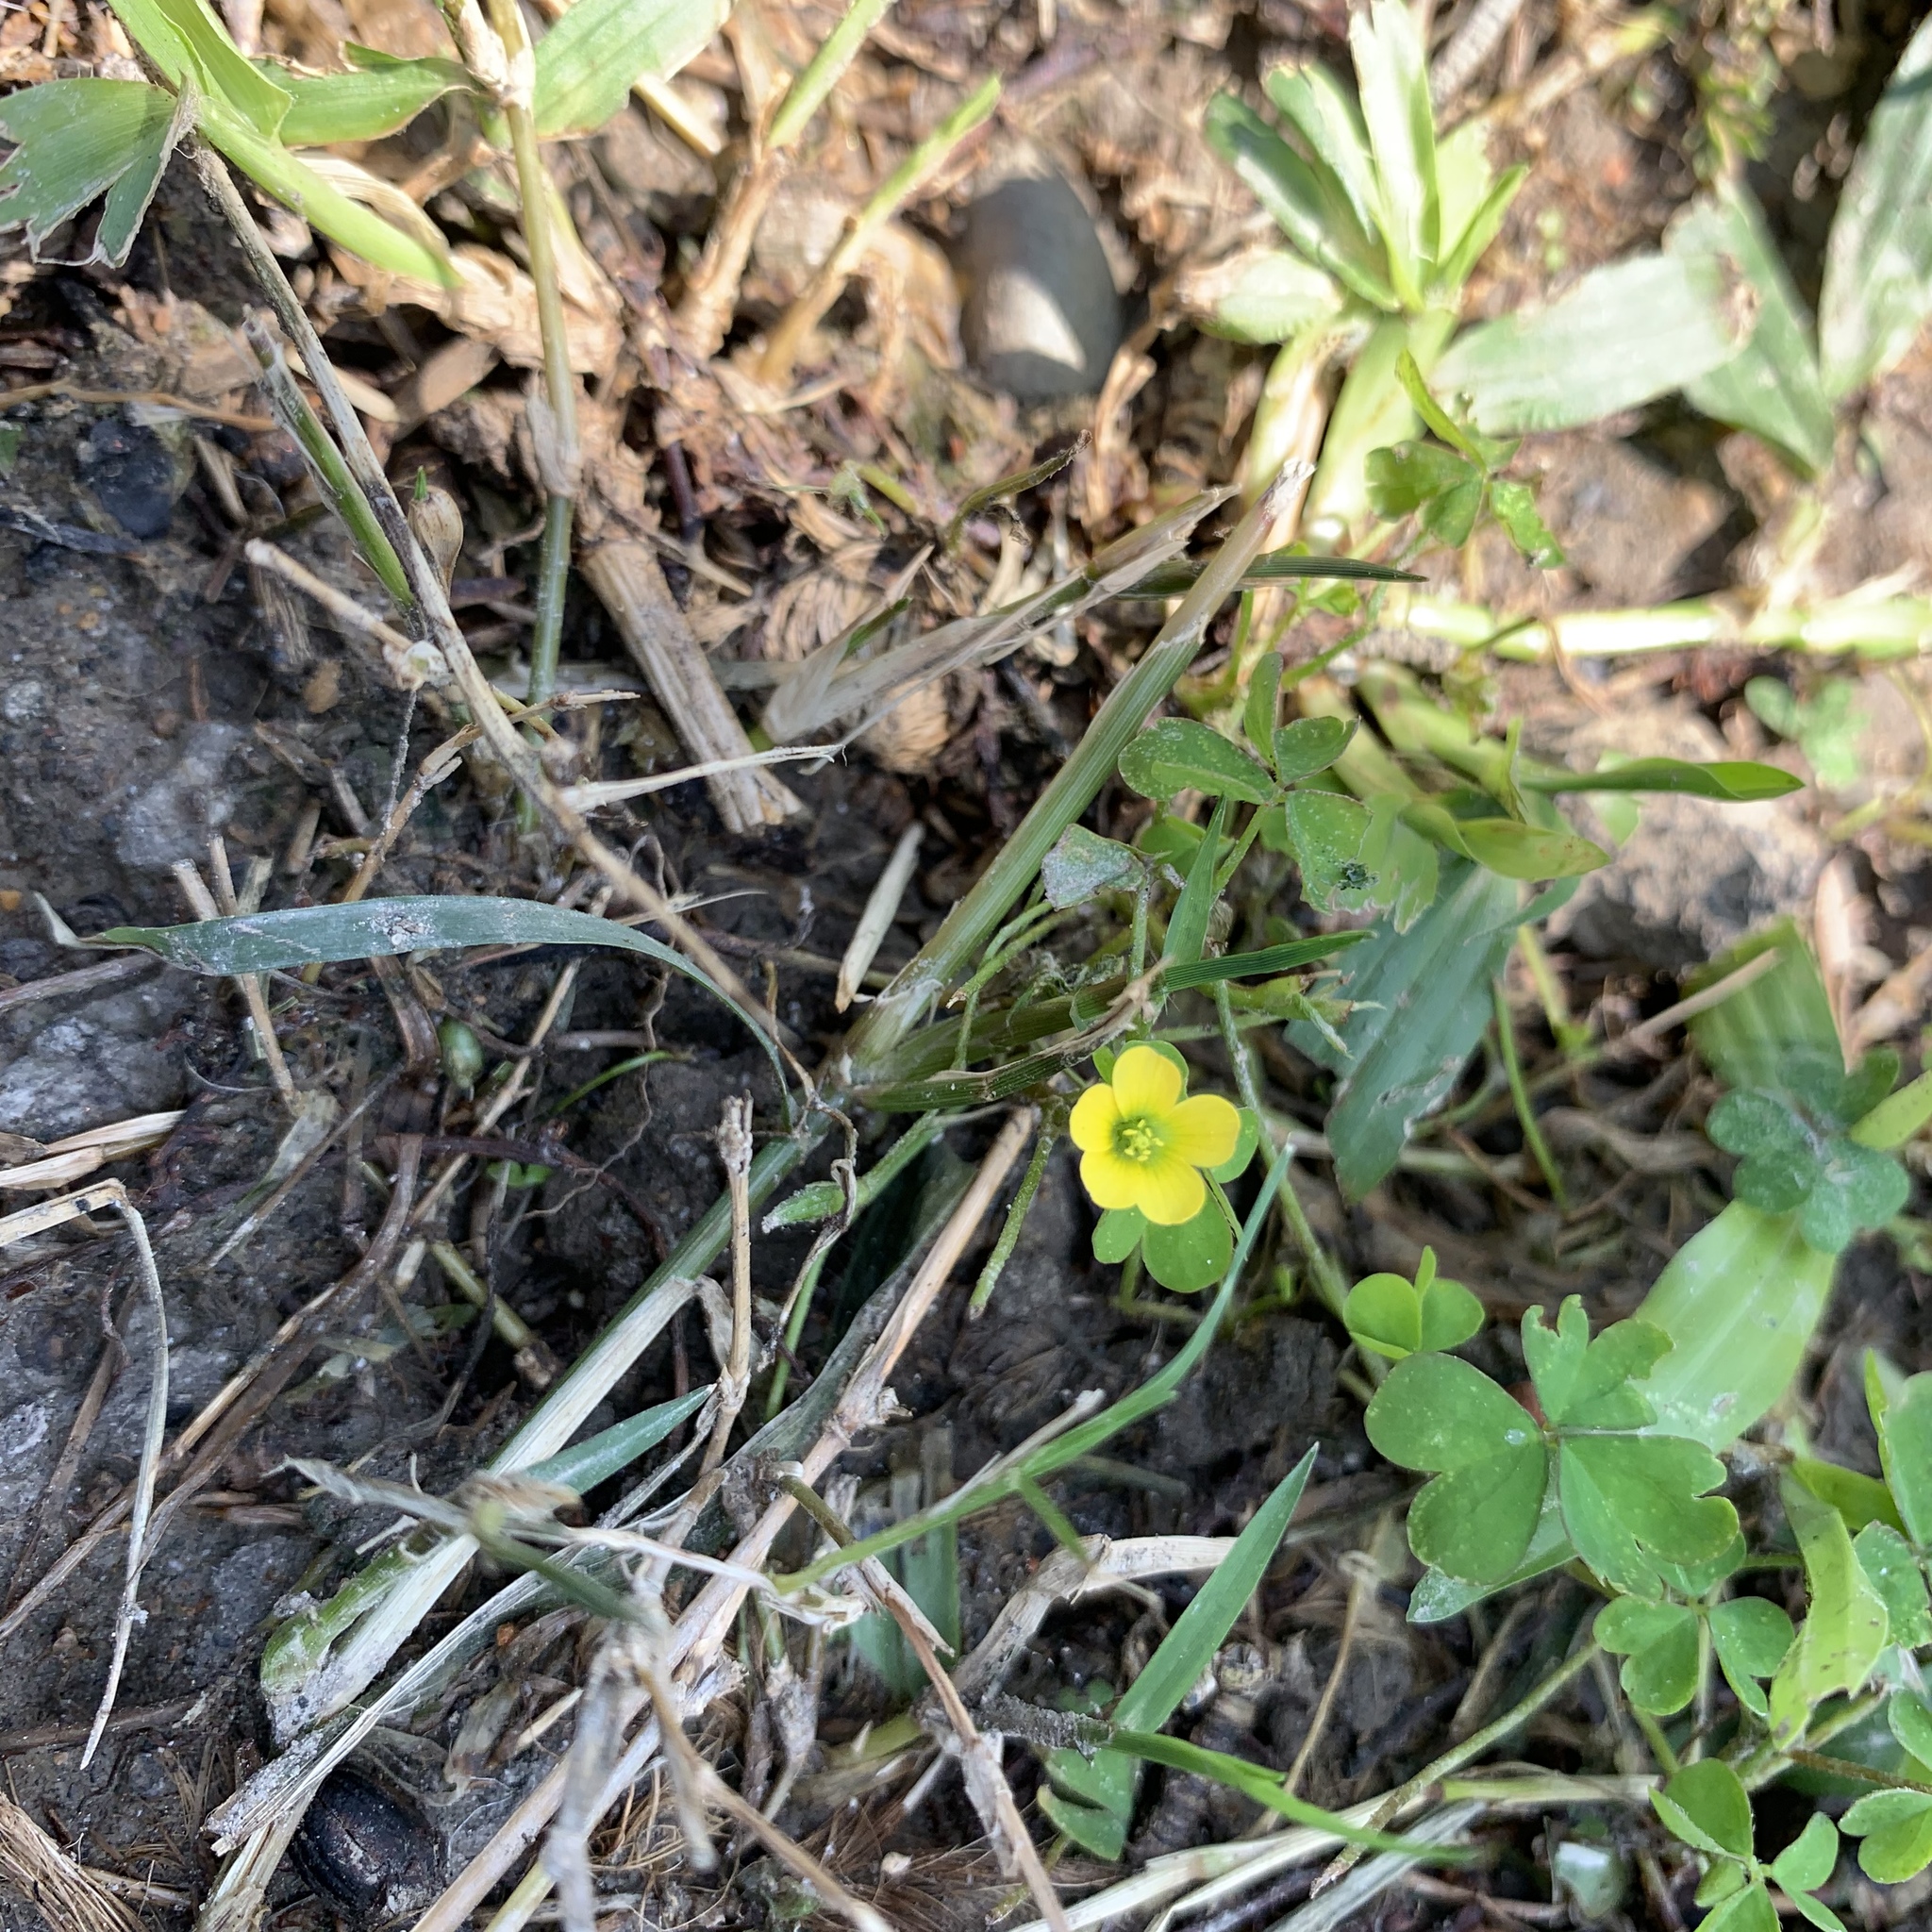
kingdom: Plantae
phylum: Tracheophyta
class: Magnoliopsida
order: Oxalidales
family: Oxalidaceae
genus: Oxalis
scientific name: Oxalis corniculata
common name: Procumbent yellow-sorrel
